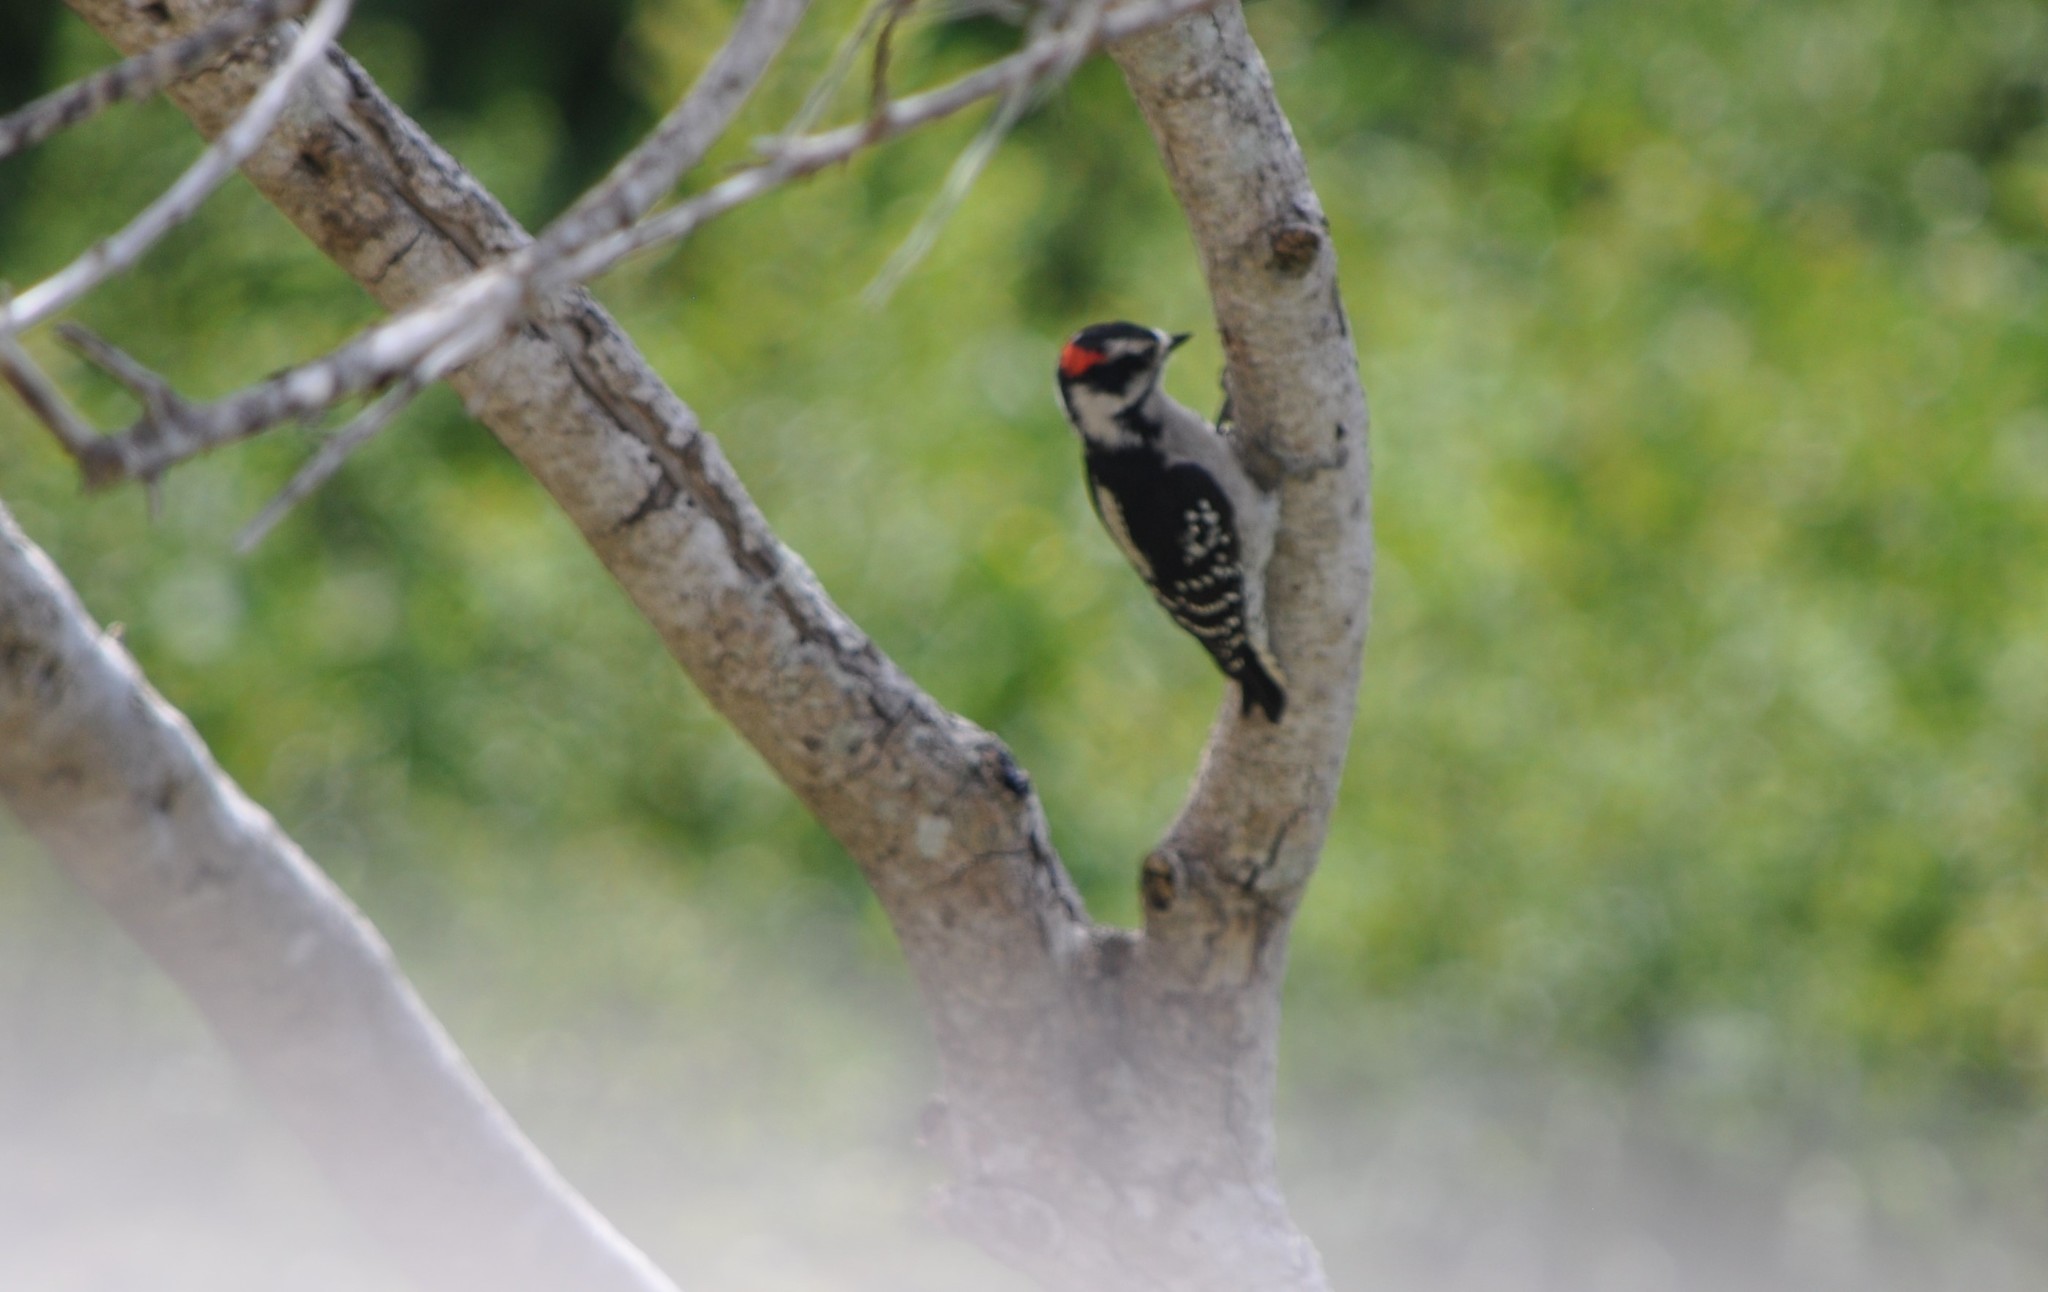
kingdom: Animalia
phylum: Chordata
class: Aves
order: Piciformes
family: Picidae
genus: Dryobates
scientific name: Dryobates pubescens
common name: Downy woodpecker
